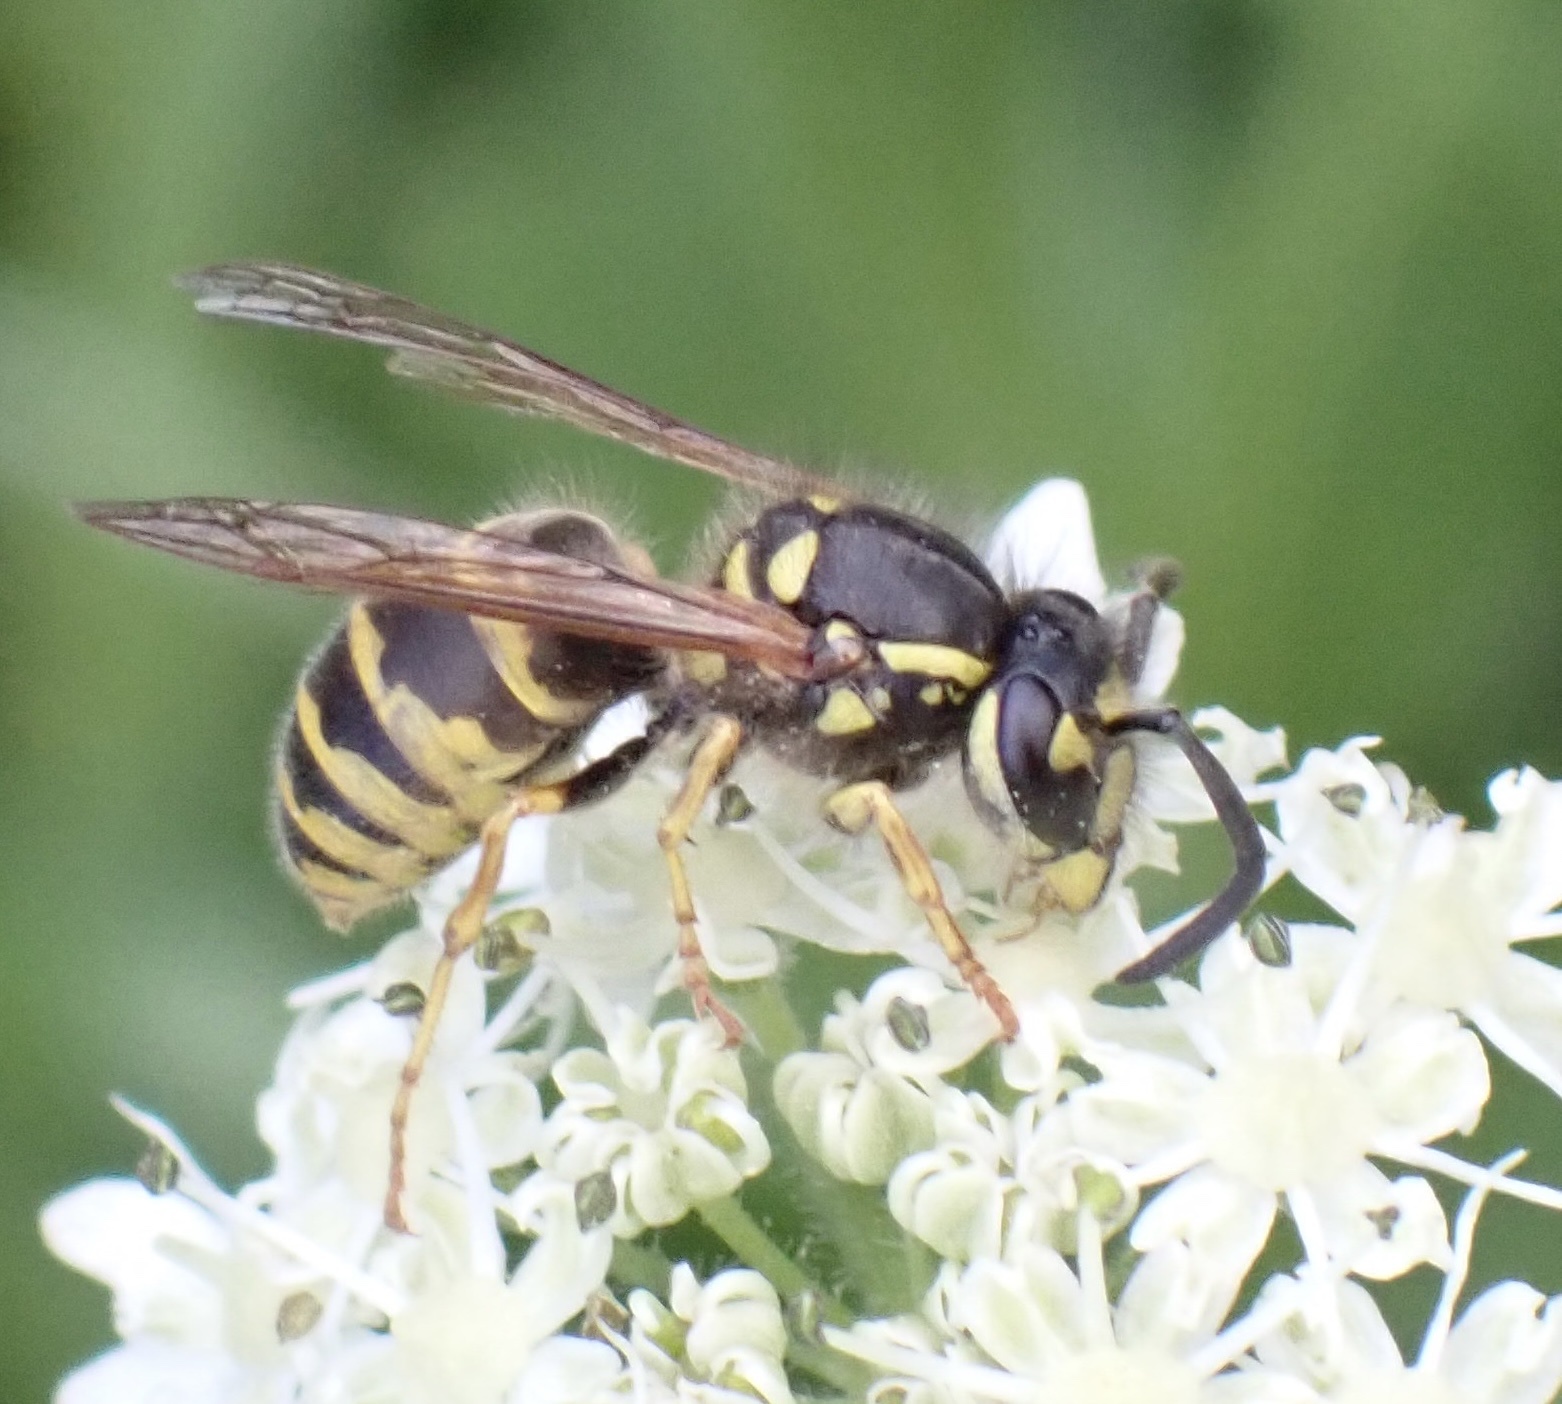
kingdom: Animalia
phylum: Arthropoda
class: Insecta
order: Hymenoptera
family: Vespidae
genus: Vespula
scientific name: Vespula vulgaris
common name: Common wasp
